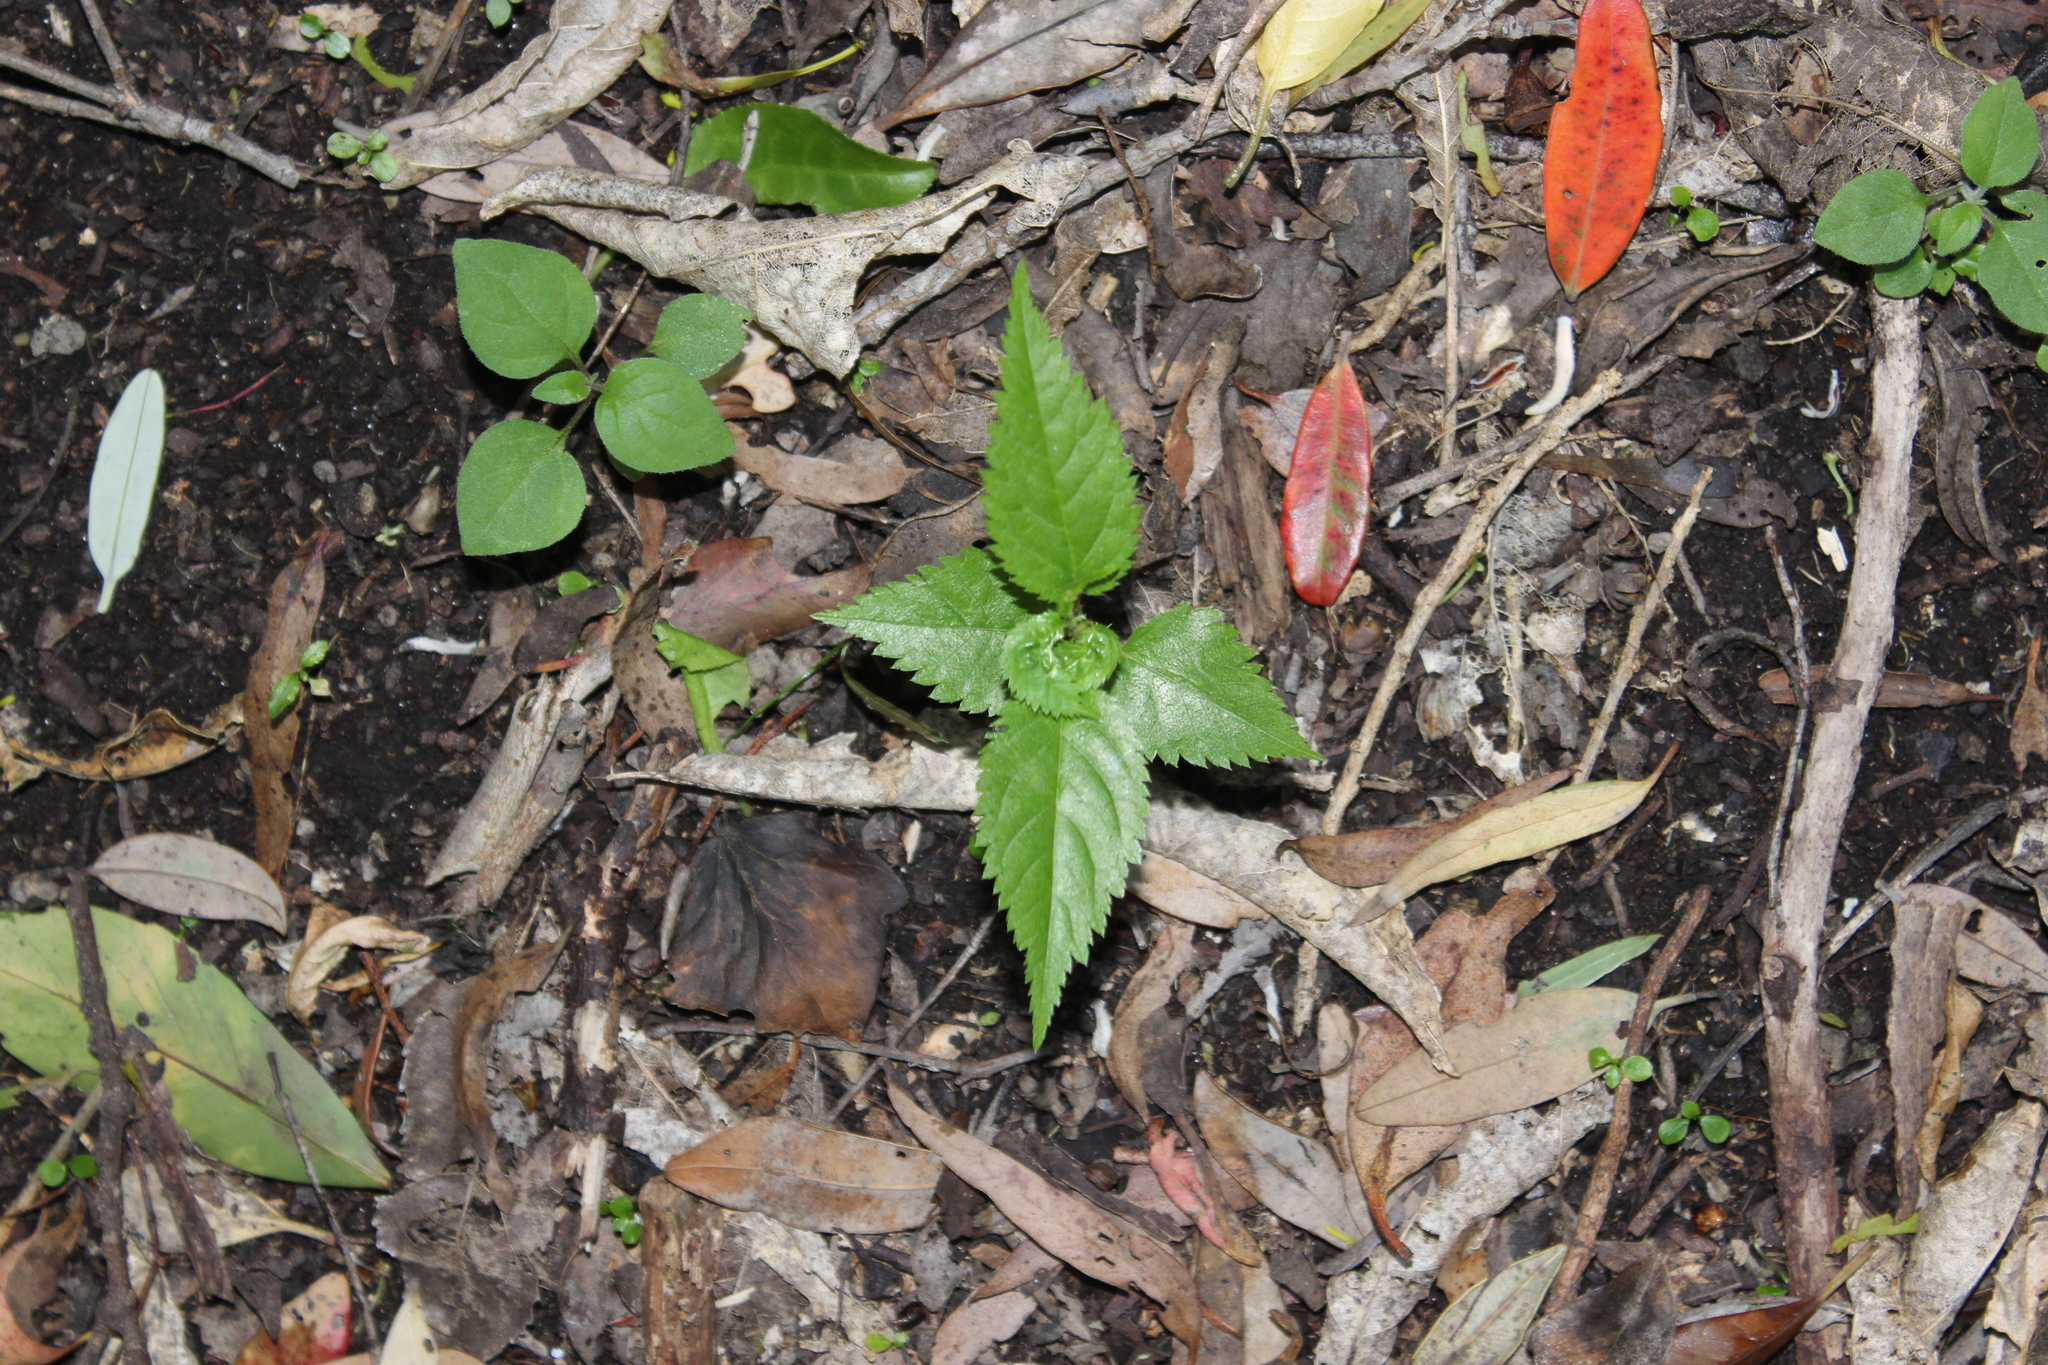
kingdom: Plantae
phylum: Tracheophyta
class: Magnoliopsida
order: Rosales
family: Rosaceae
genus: Prunus
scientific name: Prunus serrulata
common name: Japanese cherry
